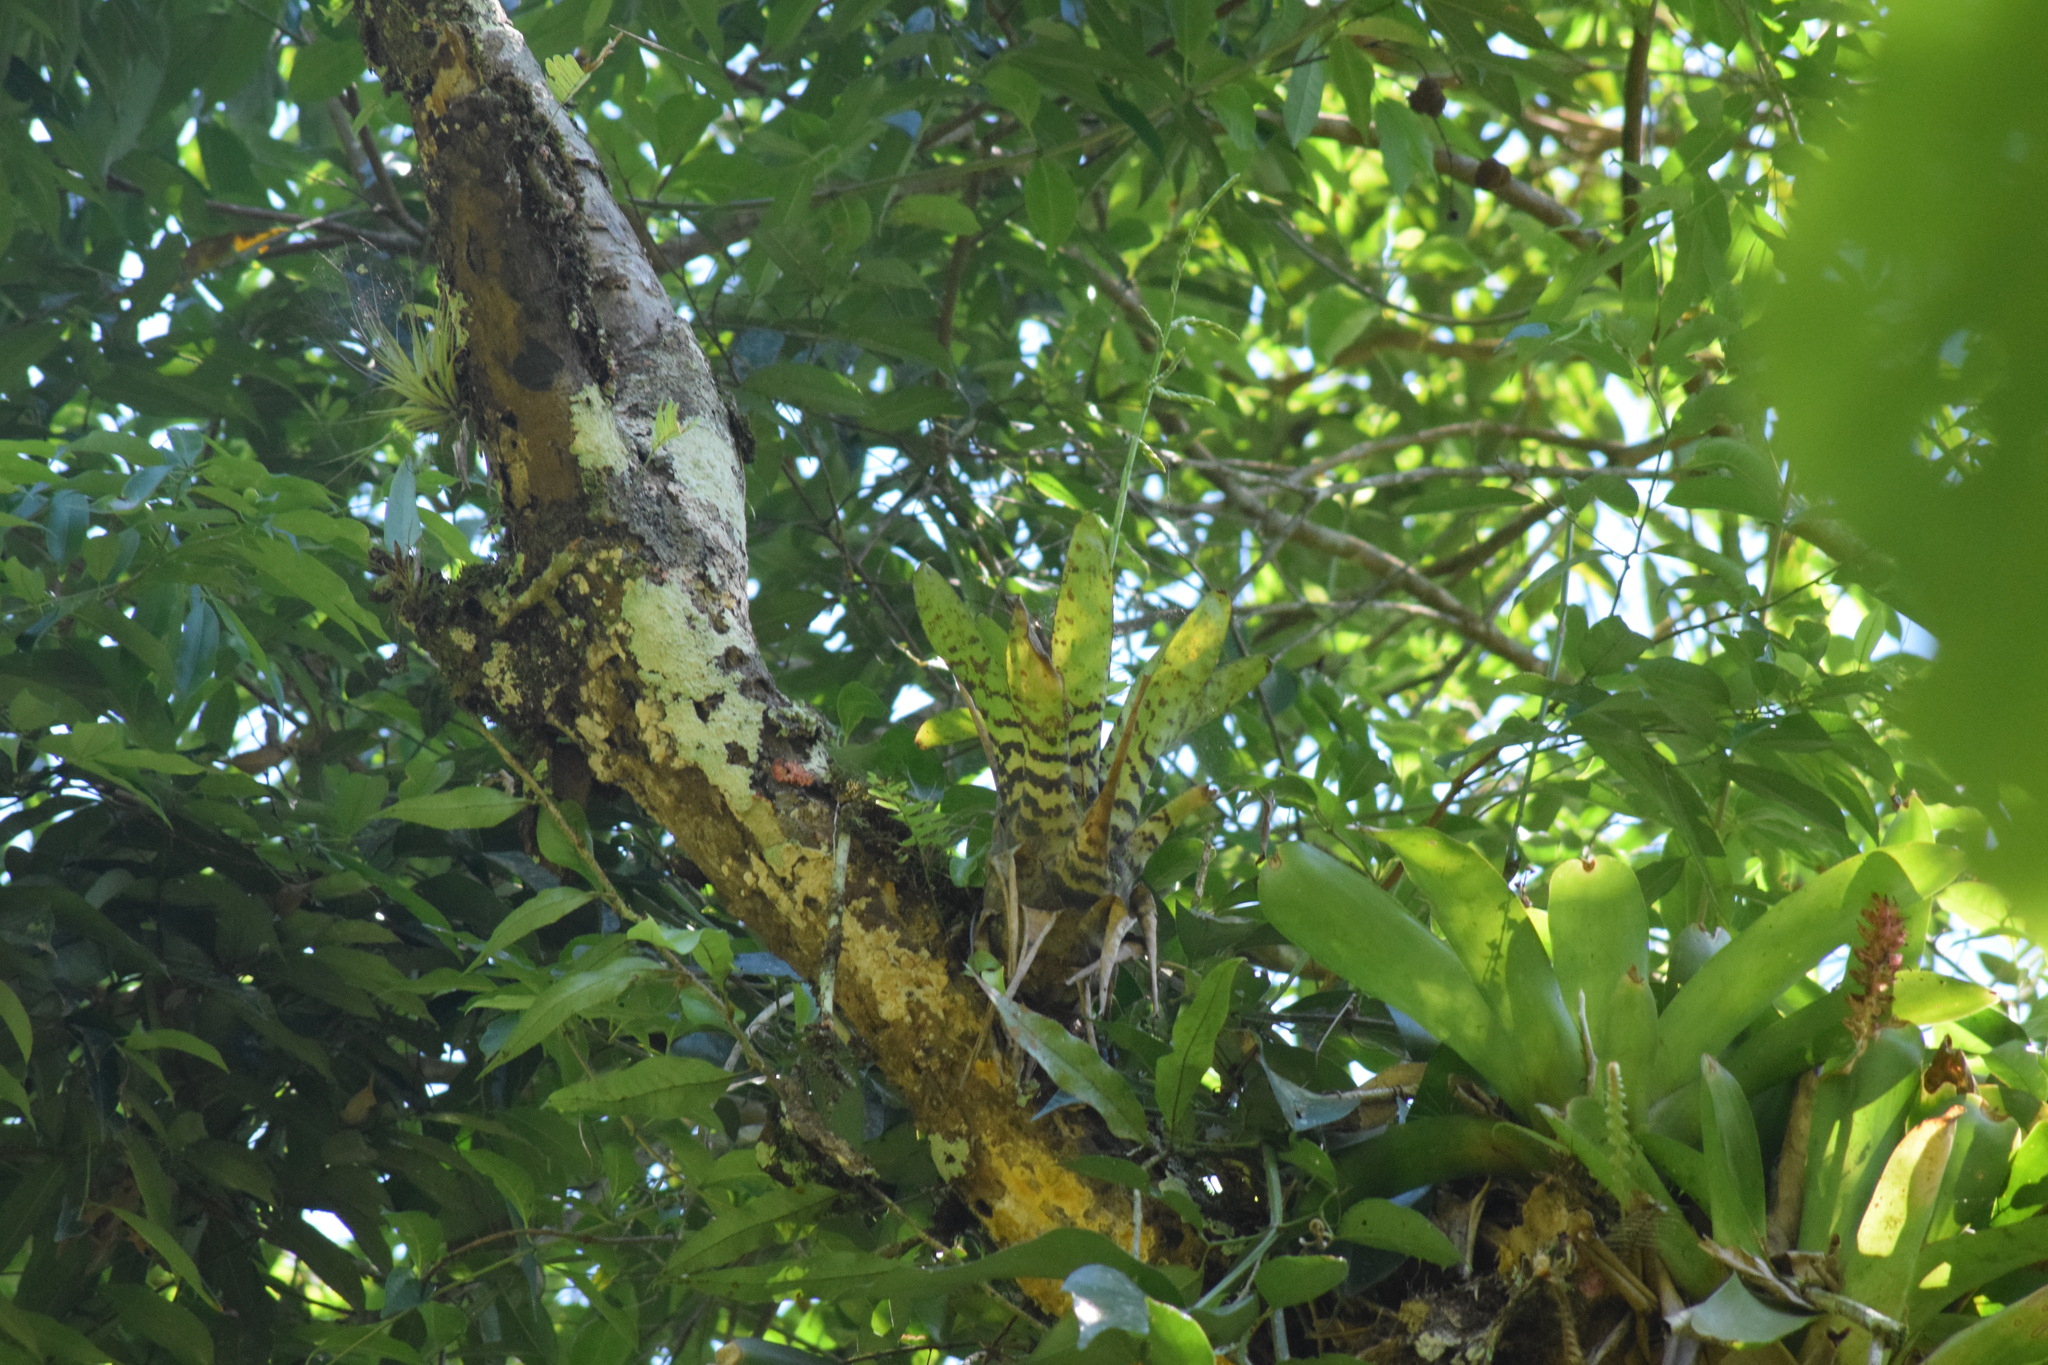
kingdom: Plantae
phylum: Tracheophyta
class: Liliopsida
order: Poales
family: Bromeliaceae
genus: Racinaea
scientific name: Racinaea spiculosa
